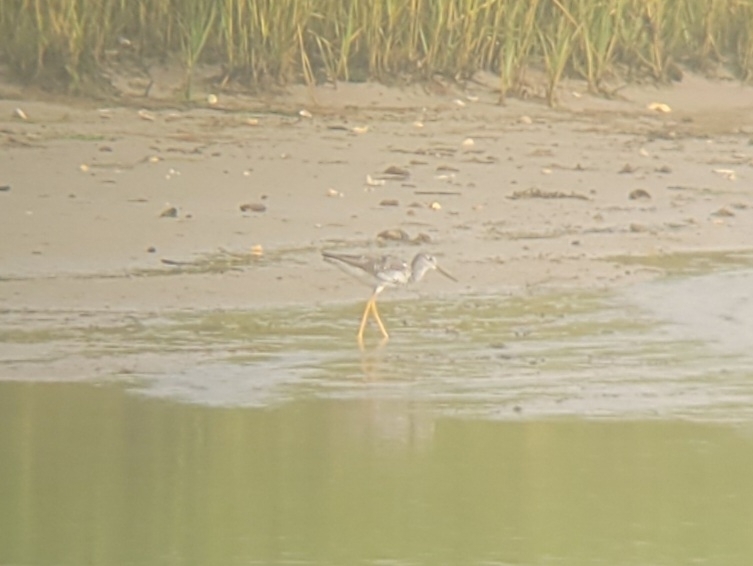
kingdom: Animalia
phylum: Chordata
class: Aves
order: Charadriiformes
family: Scolopacidae
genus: Tringa
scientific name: Tringa melanoleuca
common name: Greater yellowlegs
